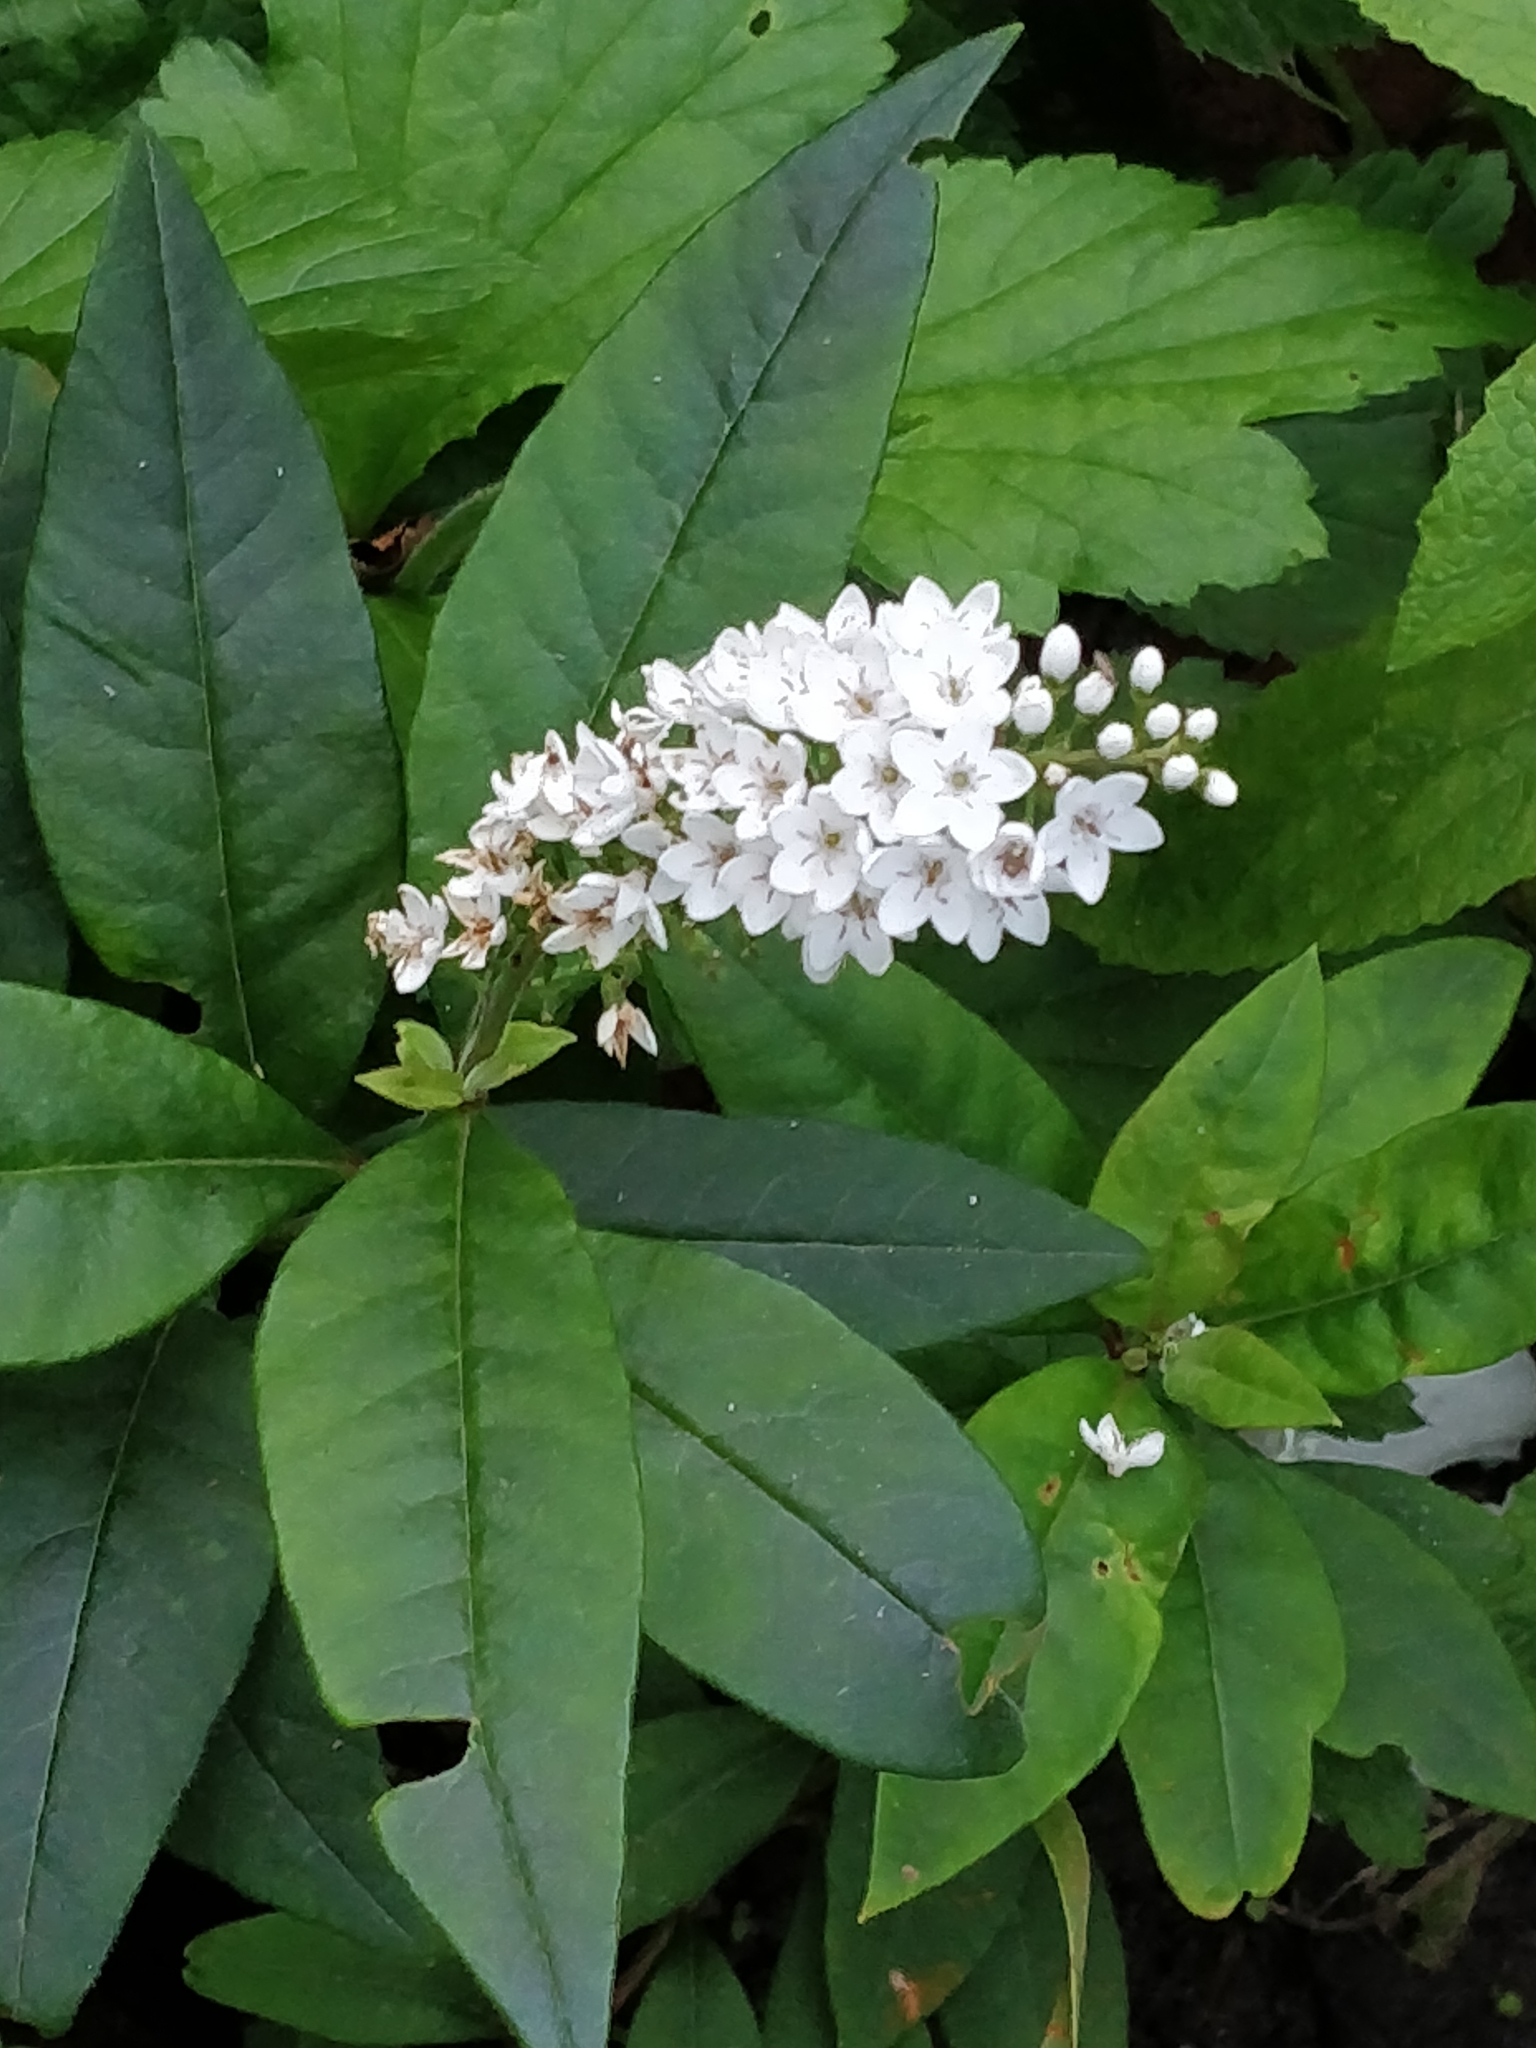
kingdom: Plantae
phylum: Tracheophyta
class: Magnoliopsida
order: Ericales
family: Primulaceae
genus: Lysimachia
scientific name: Lysimachia clethroides
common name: Gooseneck loosestrife
